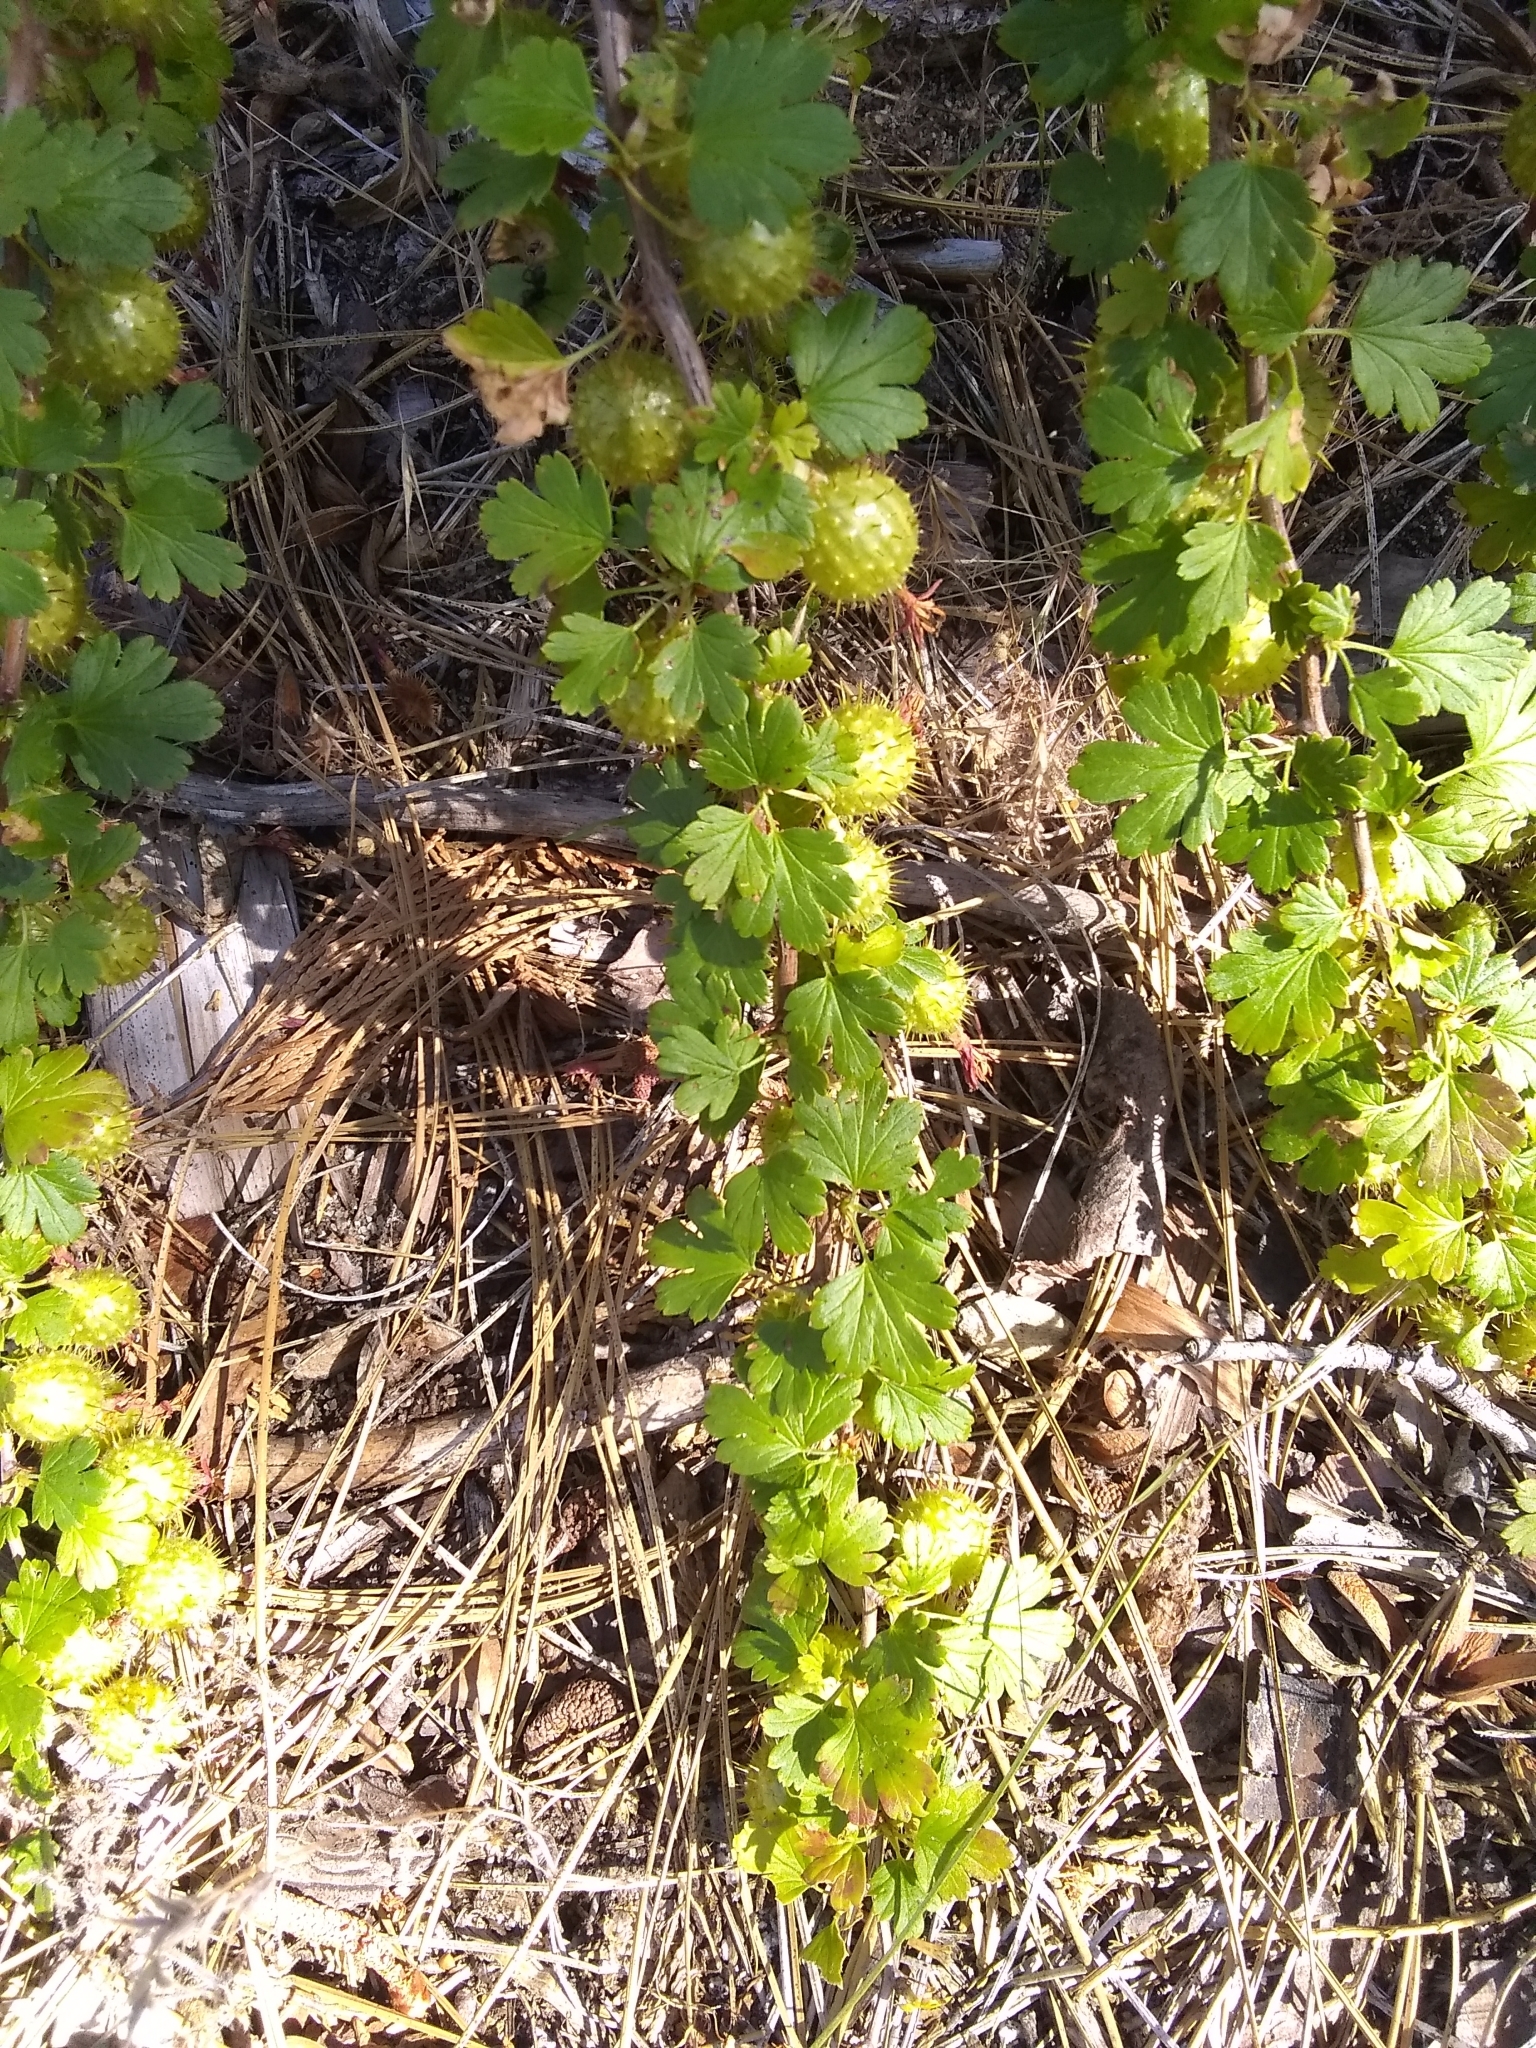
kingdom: Plantae
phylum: Tracheophyta
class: Magnoliopsida
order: Saxifragales
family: Grossulariaceae
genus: Ribes
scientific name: Ribes roezlii
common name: Sierra gooseberry
